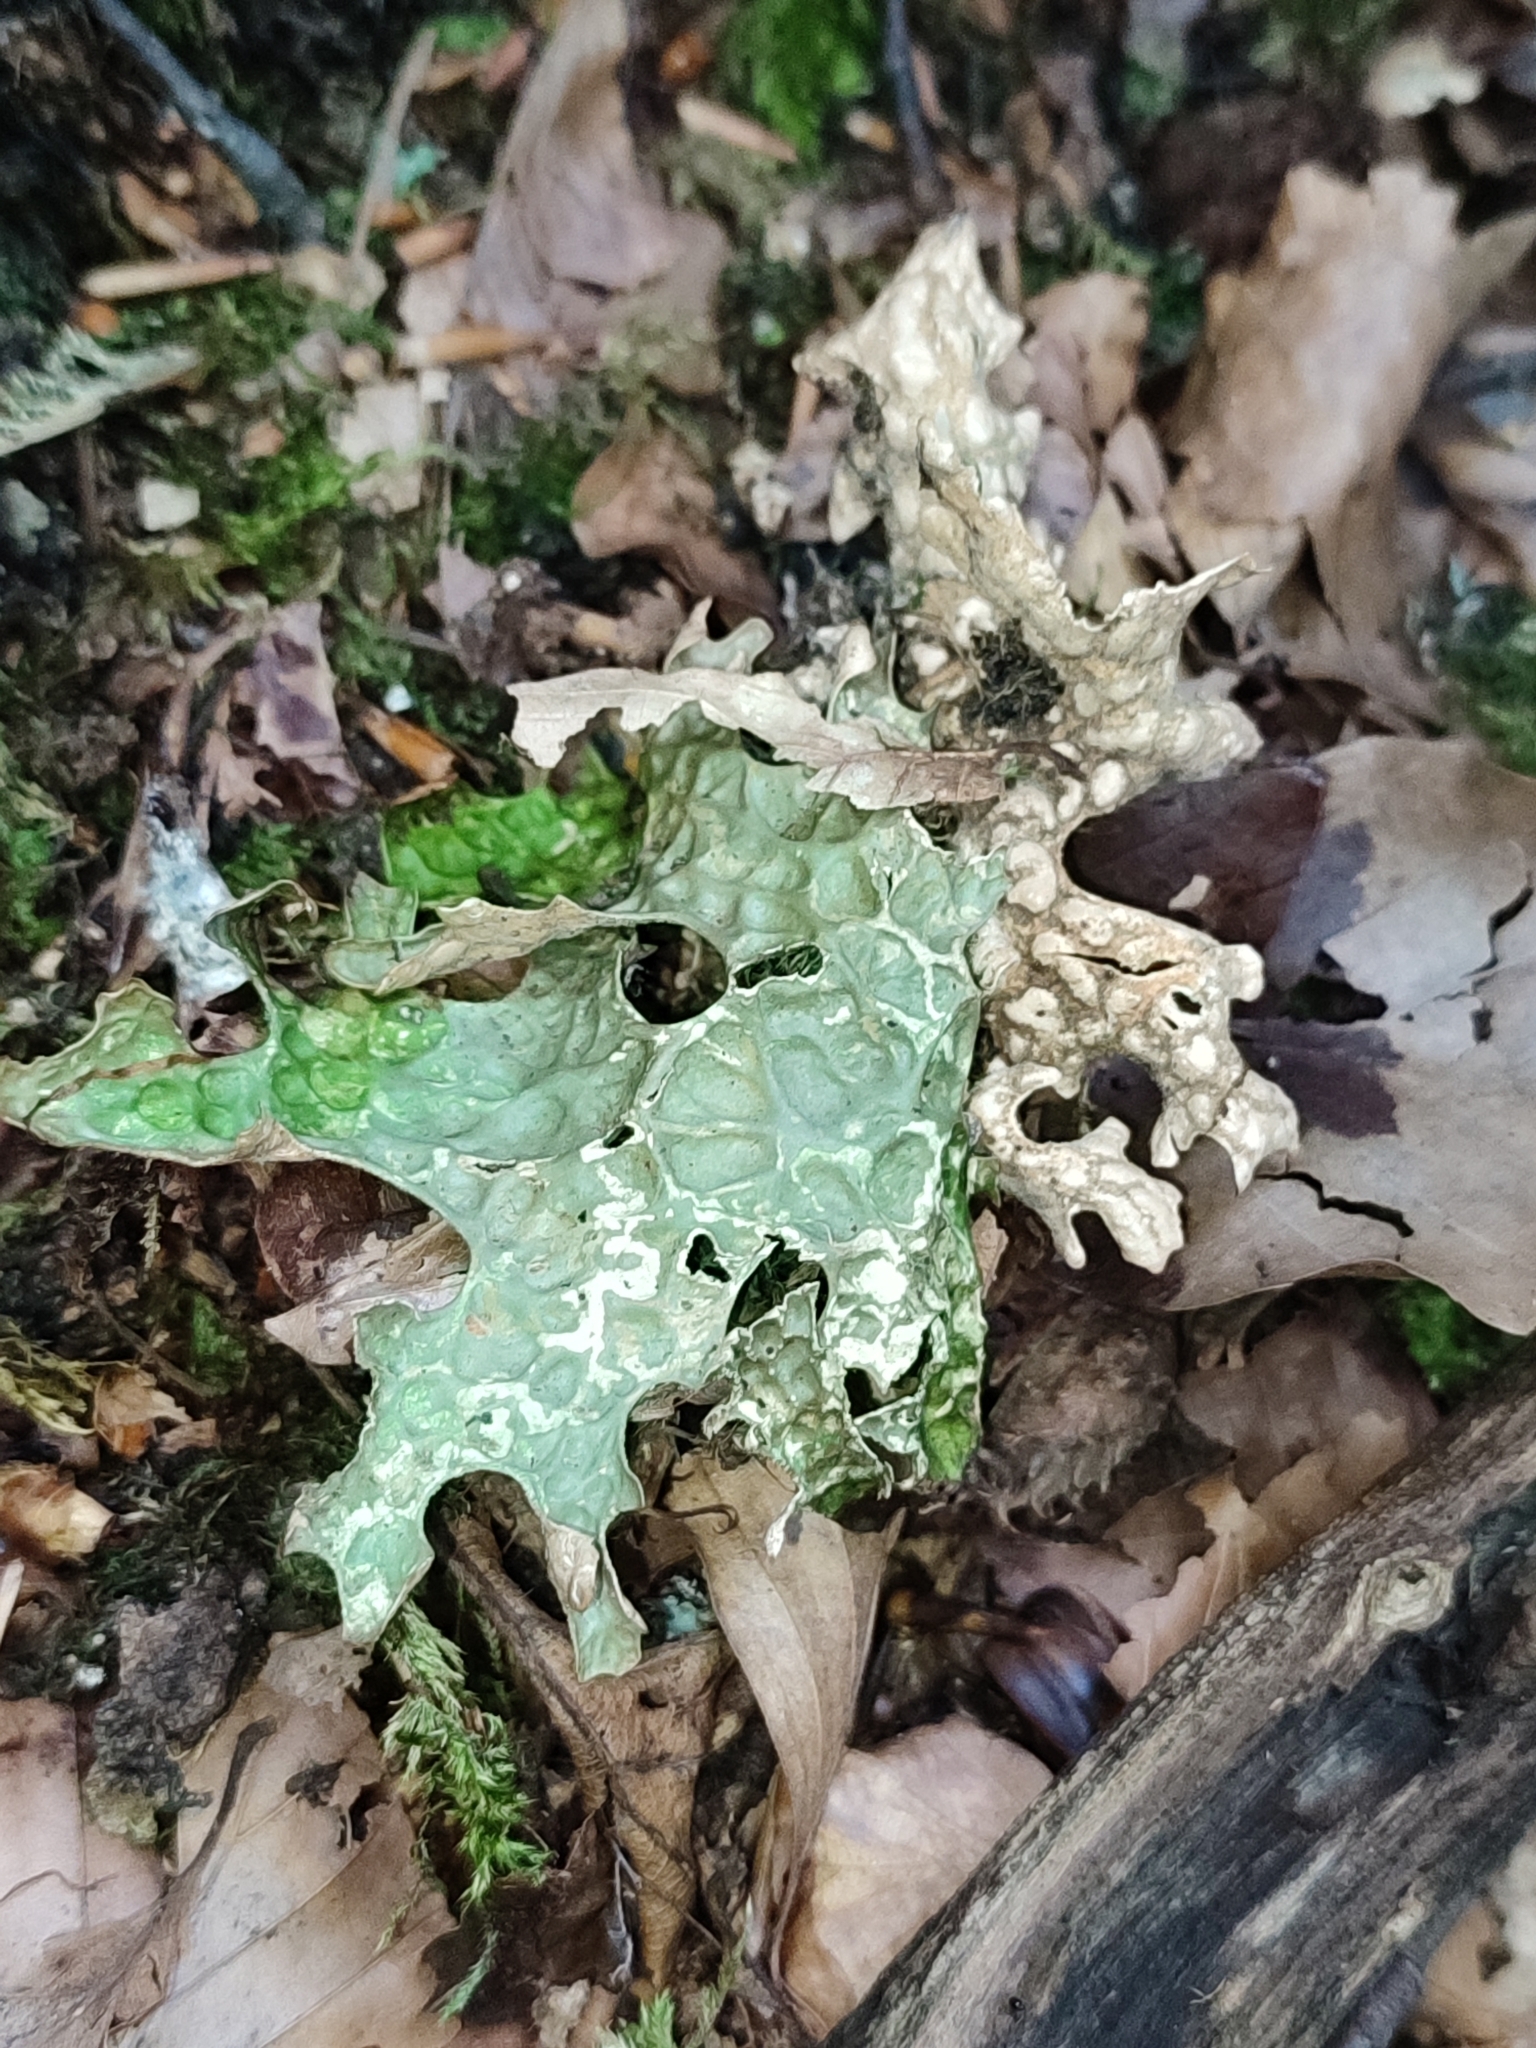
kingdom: Fungi
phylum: Ascomycota
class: Lecanoromycetes
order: Peltigerales
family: Lobariaceae
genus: Lobaria
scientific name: Lobaria pulmonaria
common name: Lungwort
